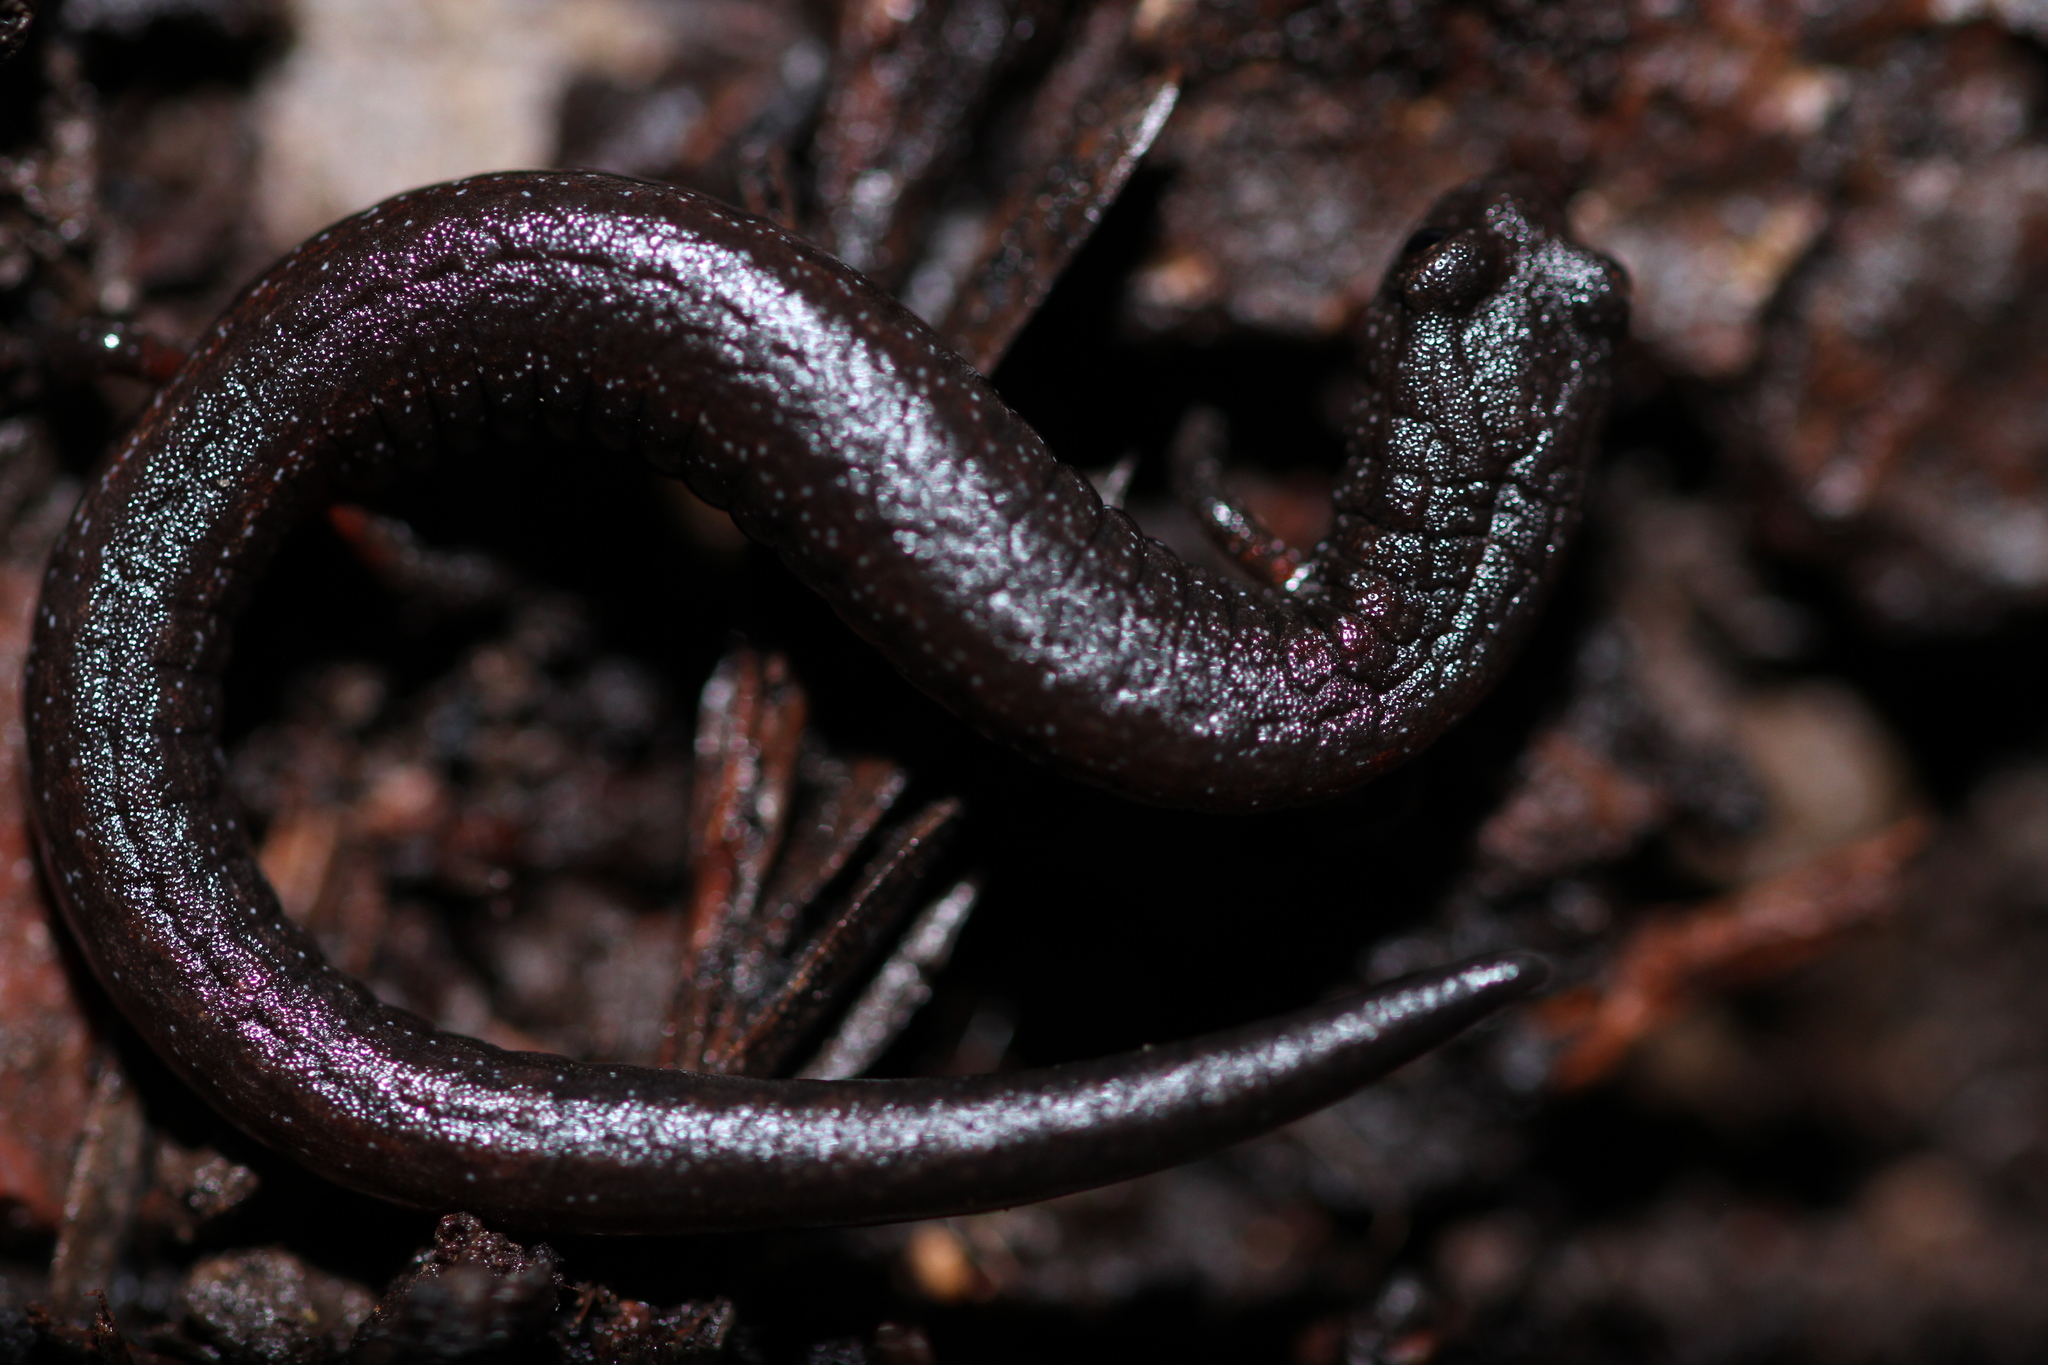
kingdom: Animalia
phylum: Chordata
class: Amphibia
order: Caudata
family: Plethodontidae
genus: Batrachoseps
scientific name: Batrachoseps attenuatus
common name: California slender salamander
